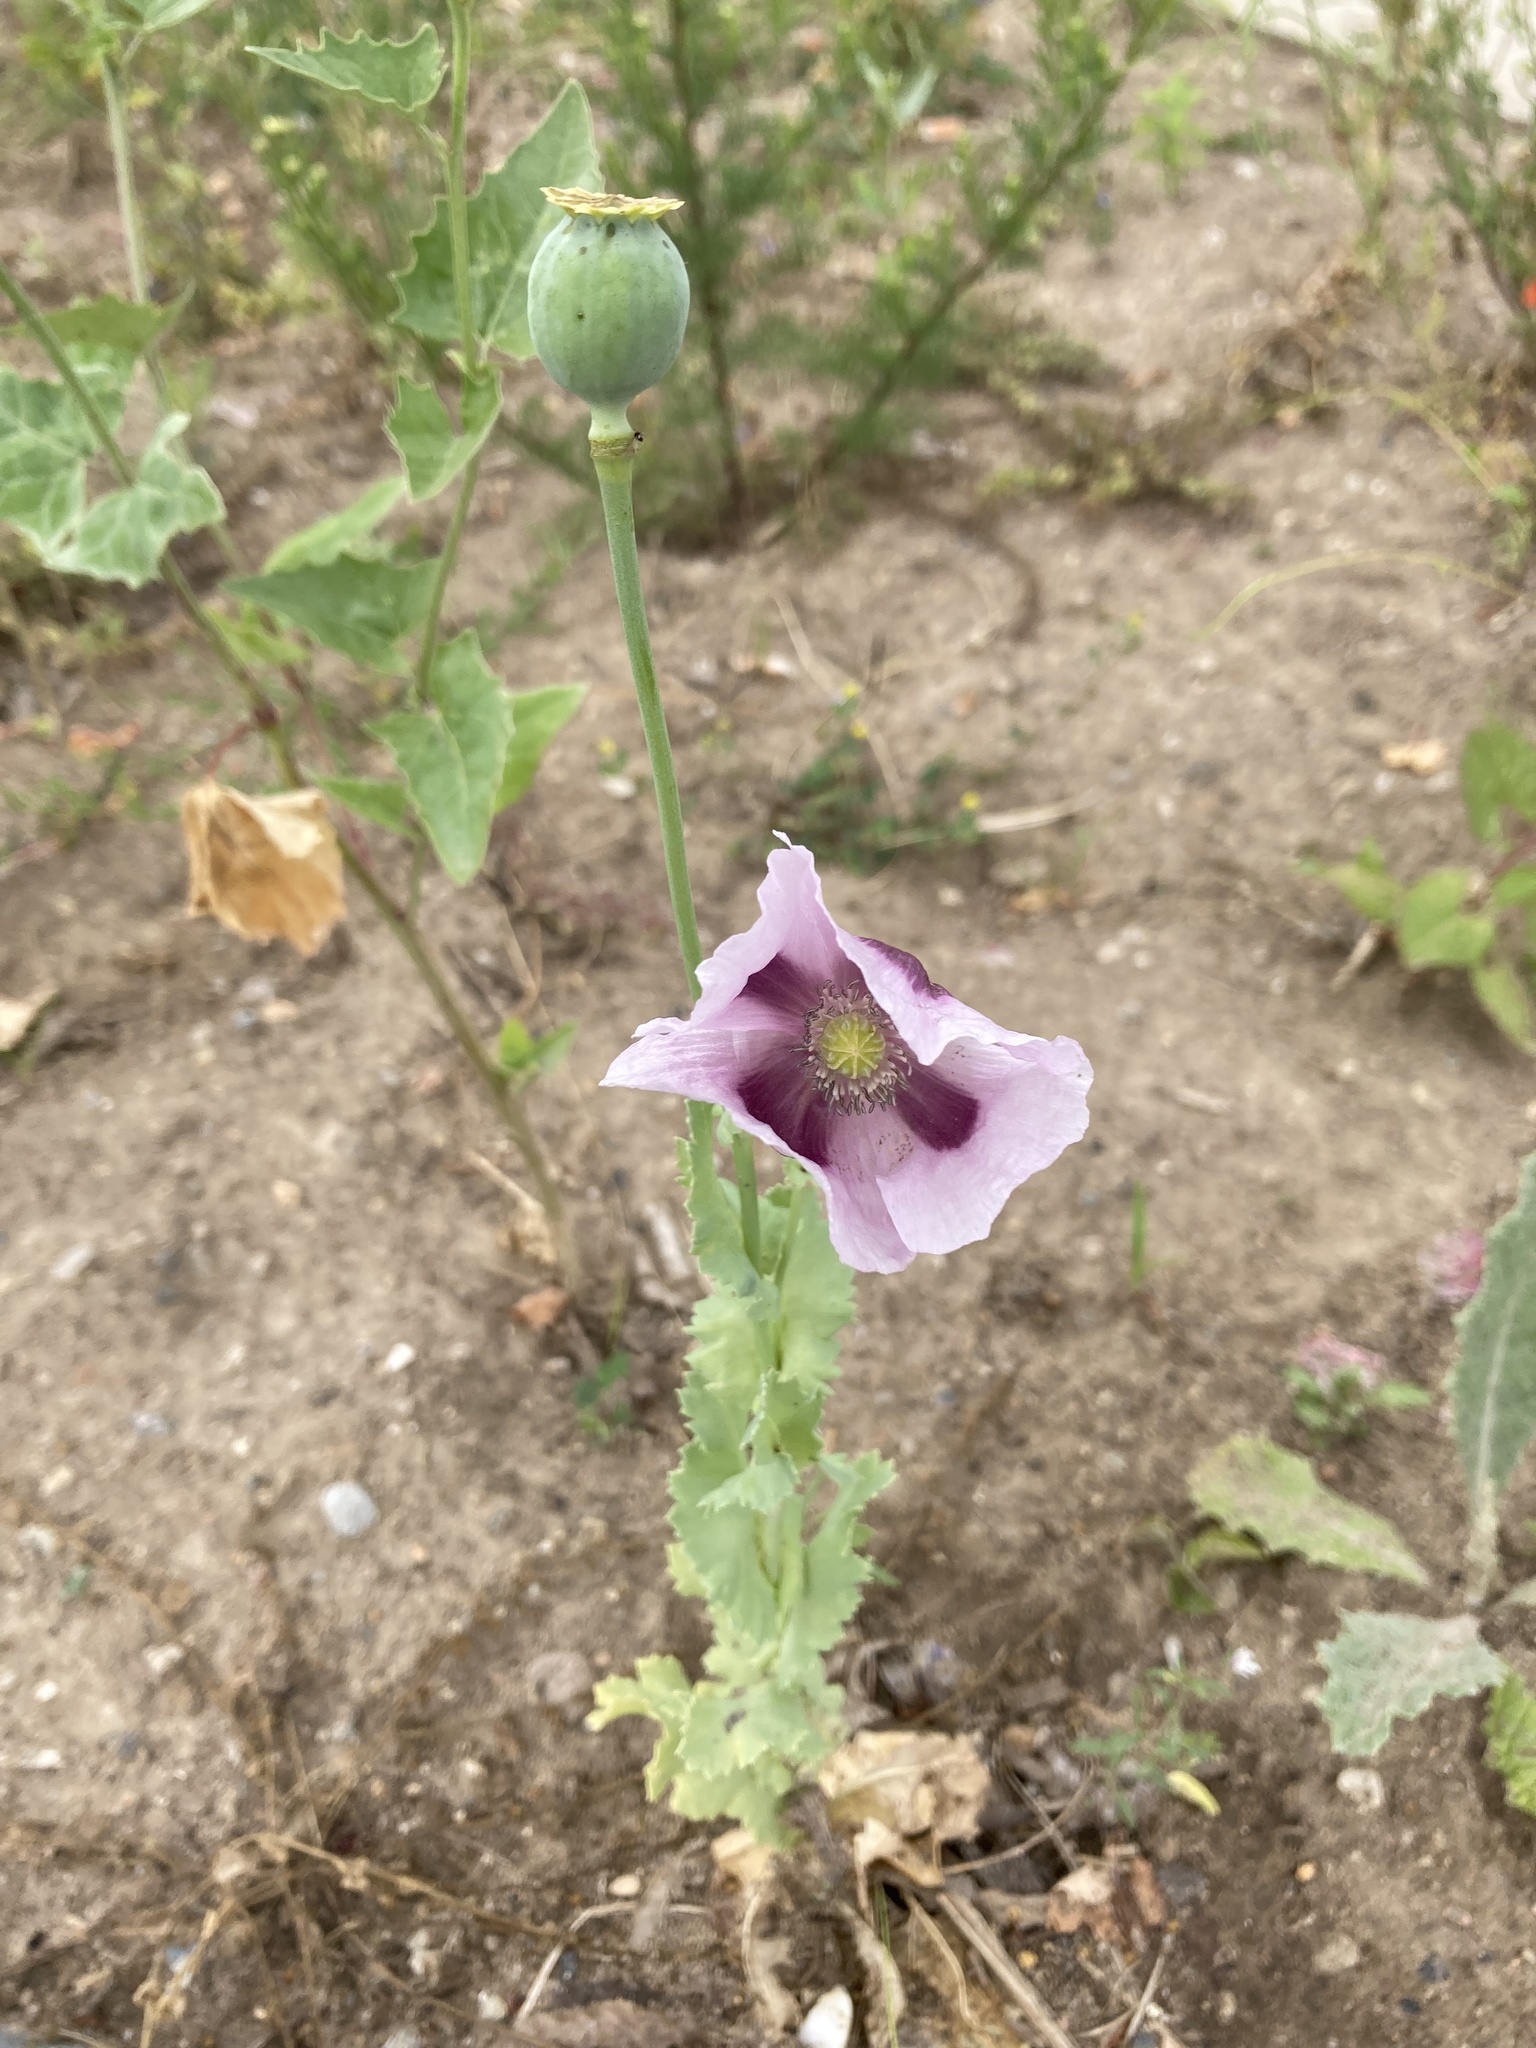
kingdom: Plantae
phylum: Tracheophyta
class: Magnoliopsida
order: Ranunculales
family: Papaveraceae
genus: Papaver
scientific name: Papaver somniferum
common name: Opium poppy
